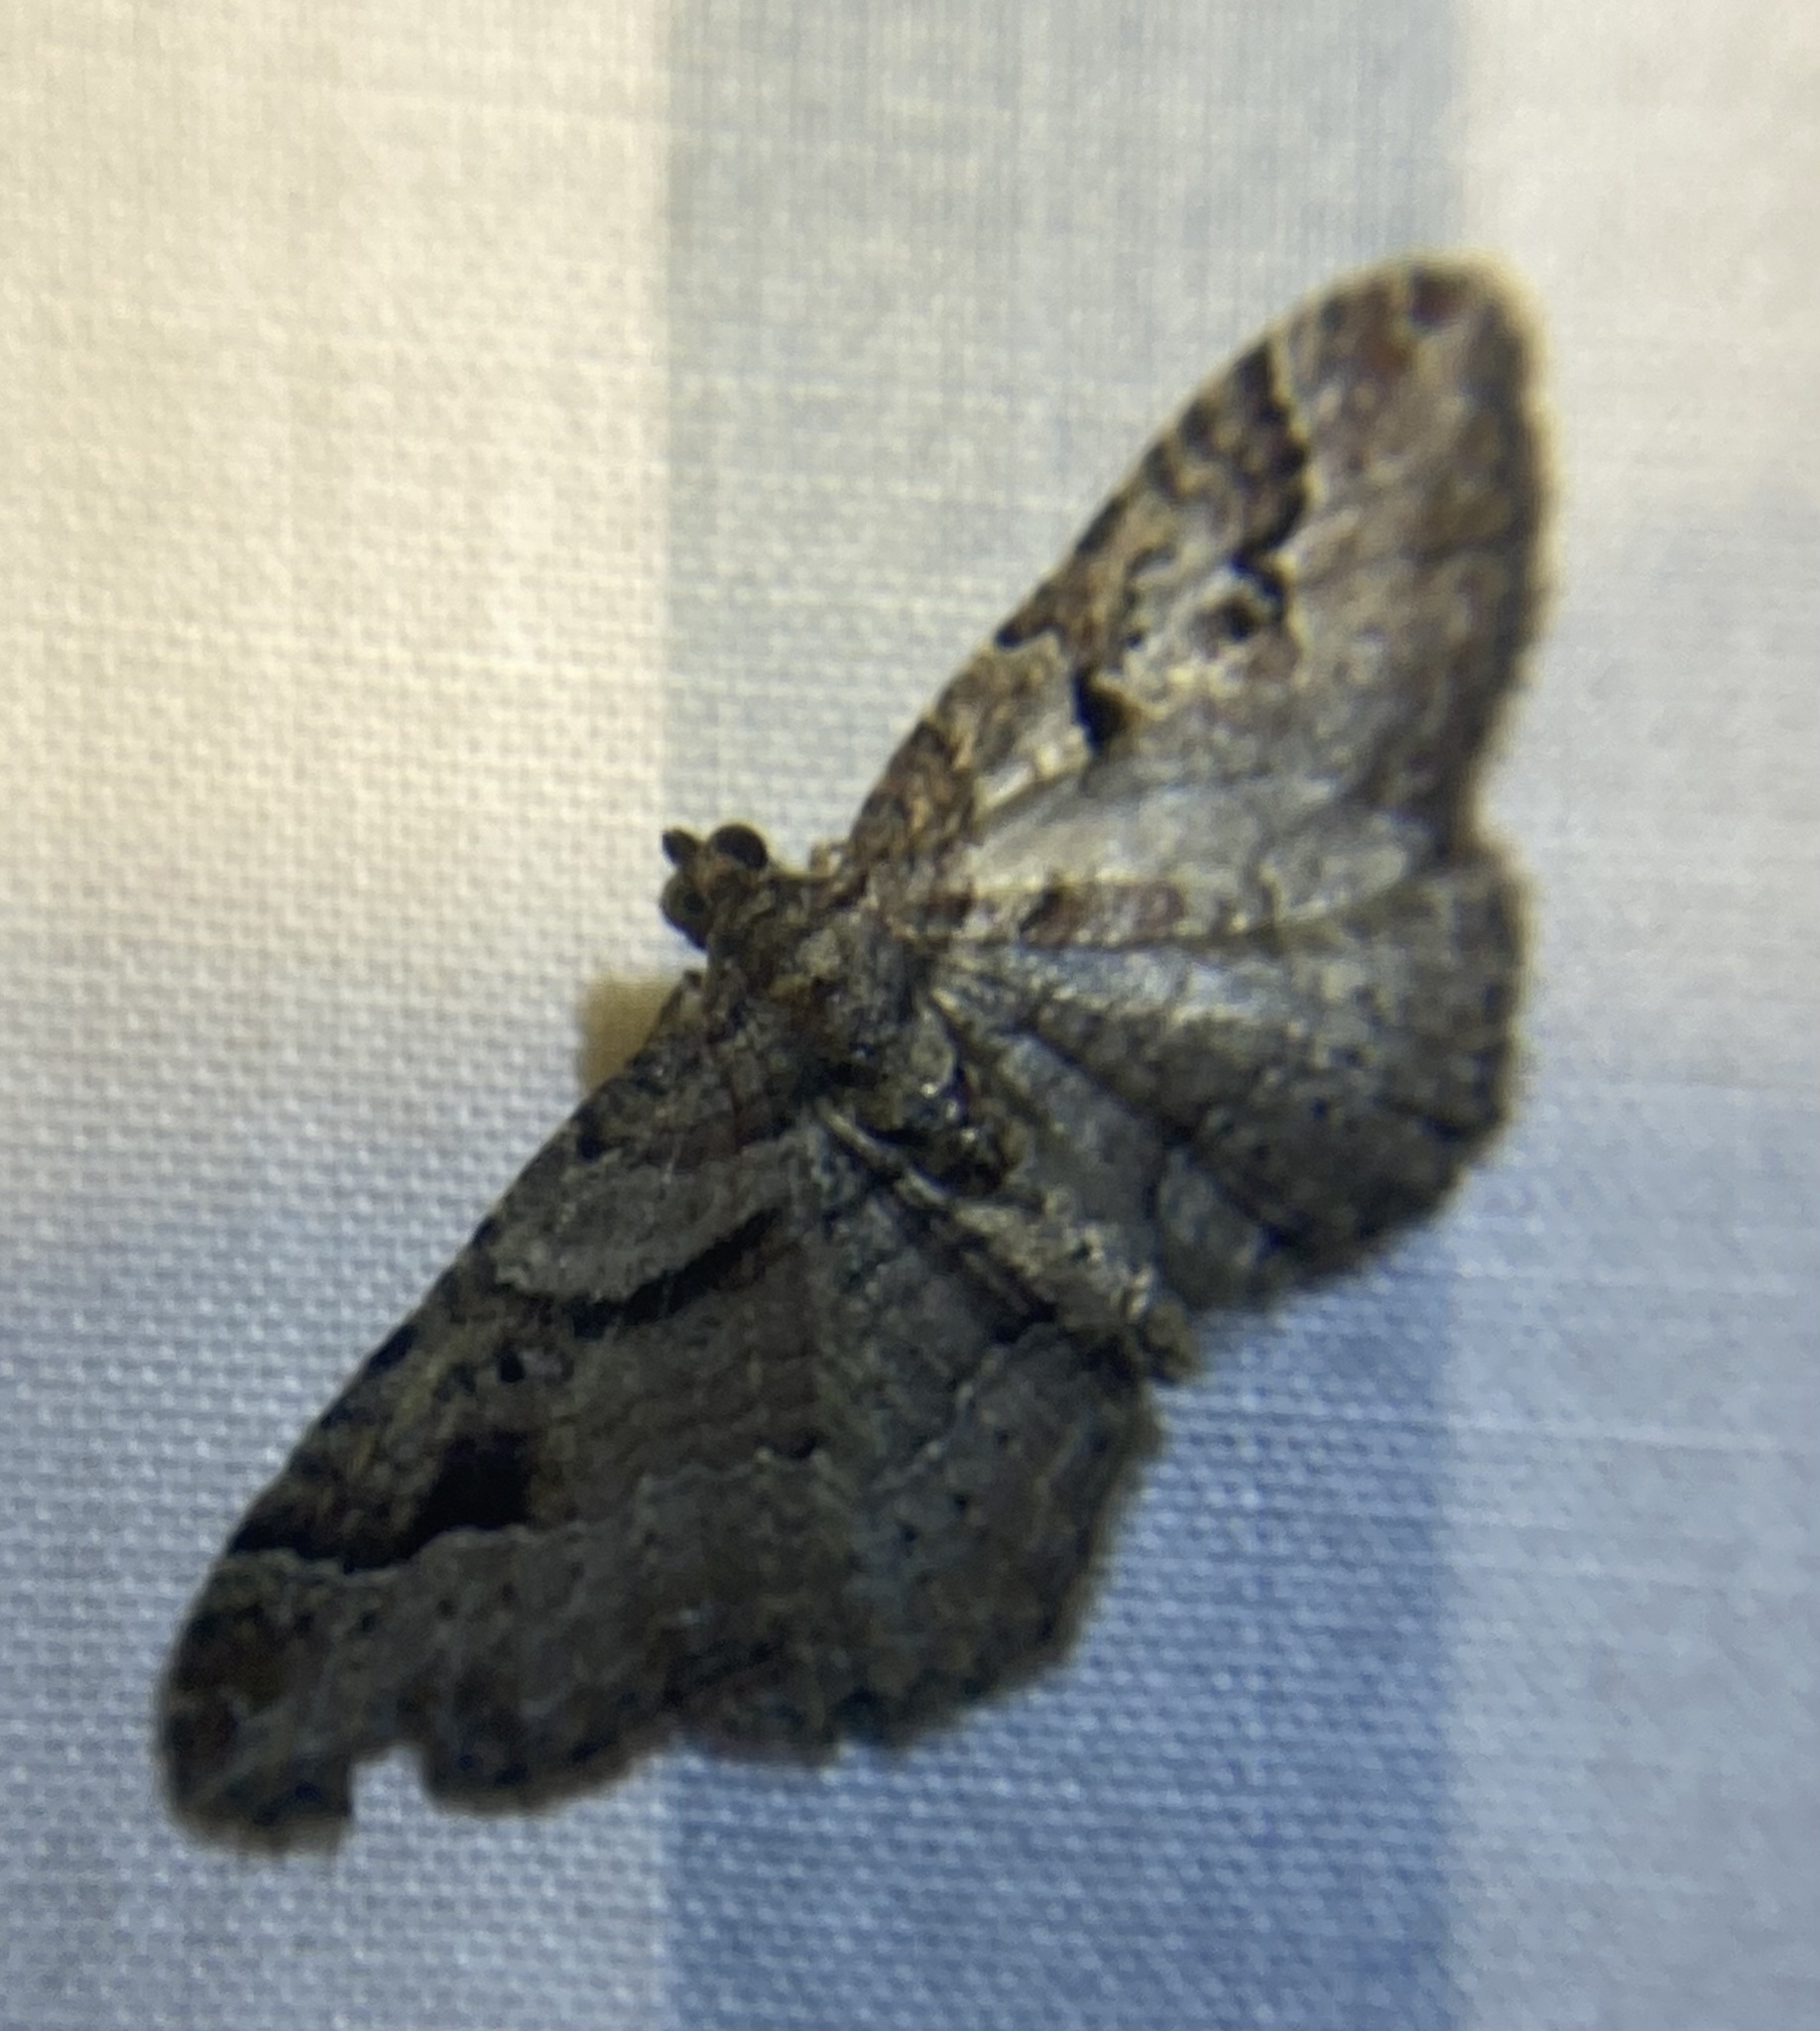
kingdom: Animalia
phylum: Arthropoda
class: Insecta
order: Lepidoptera
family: Geometridae
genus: Costaconvexa
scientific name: Costaconvexa centrostrigaria
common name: Bent-line carpet
